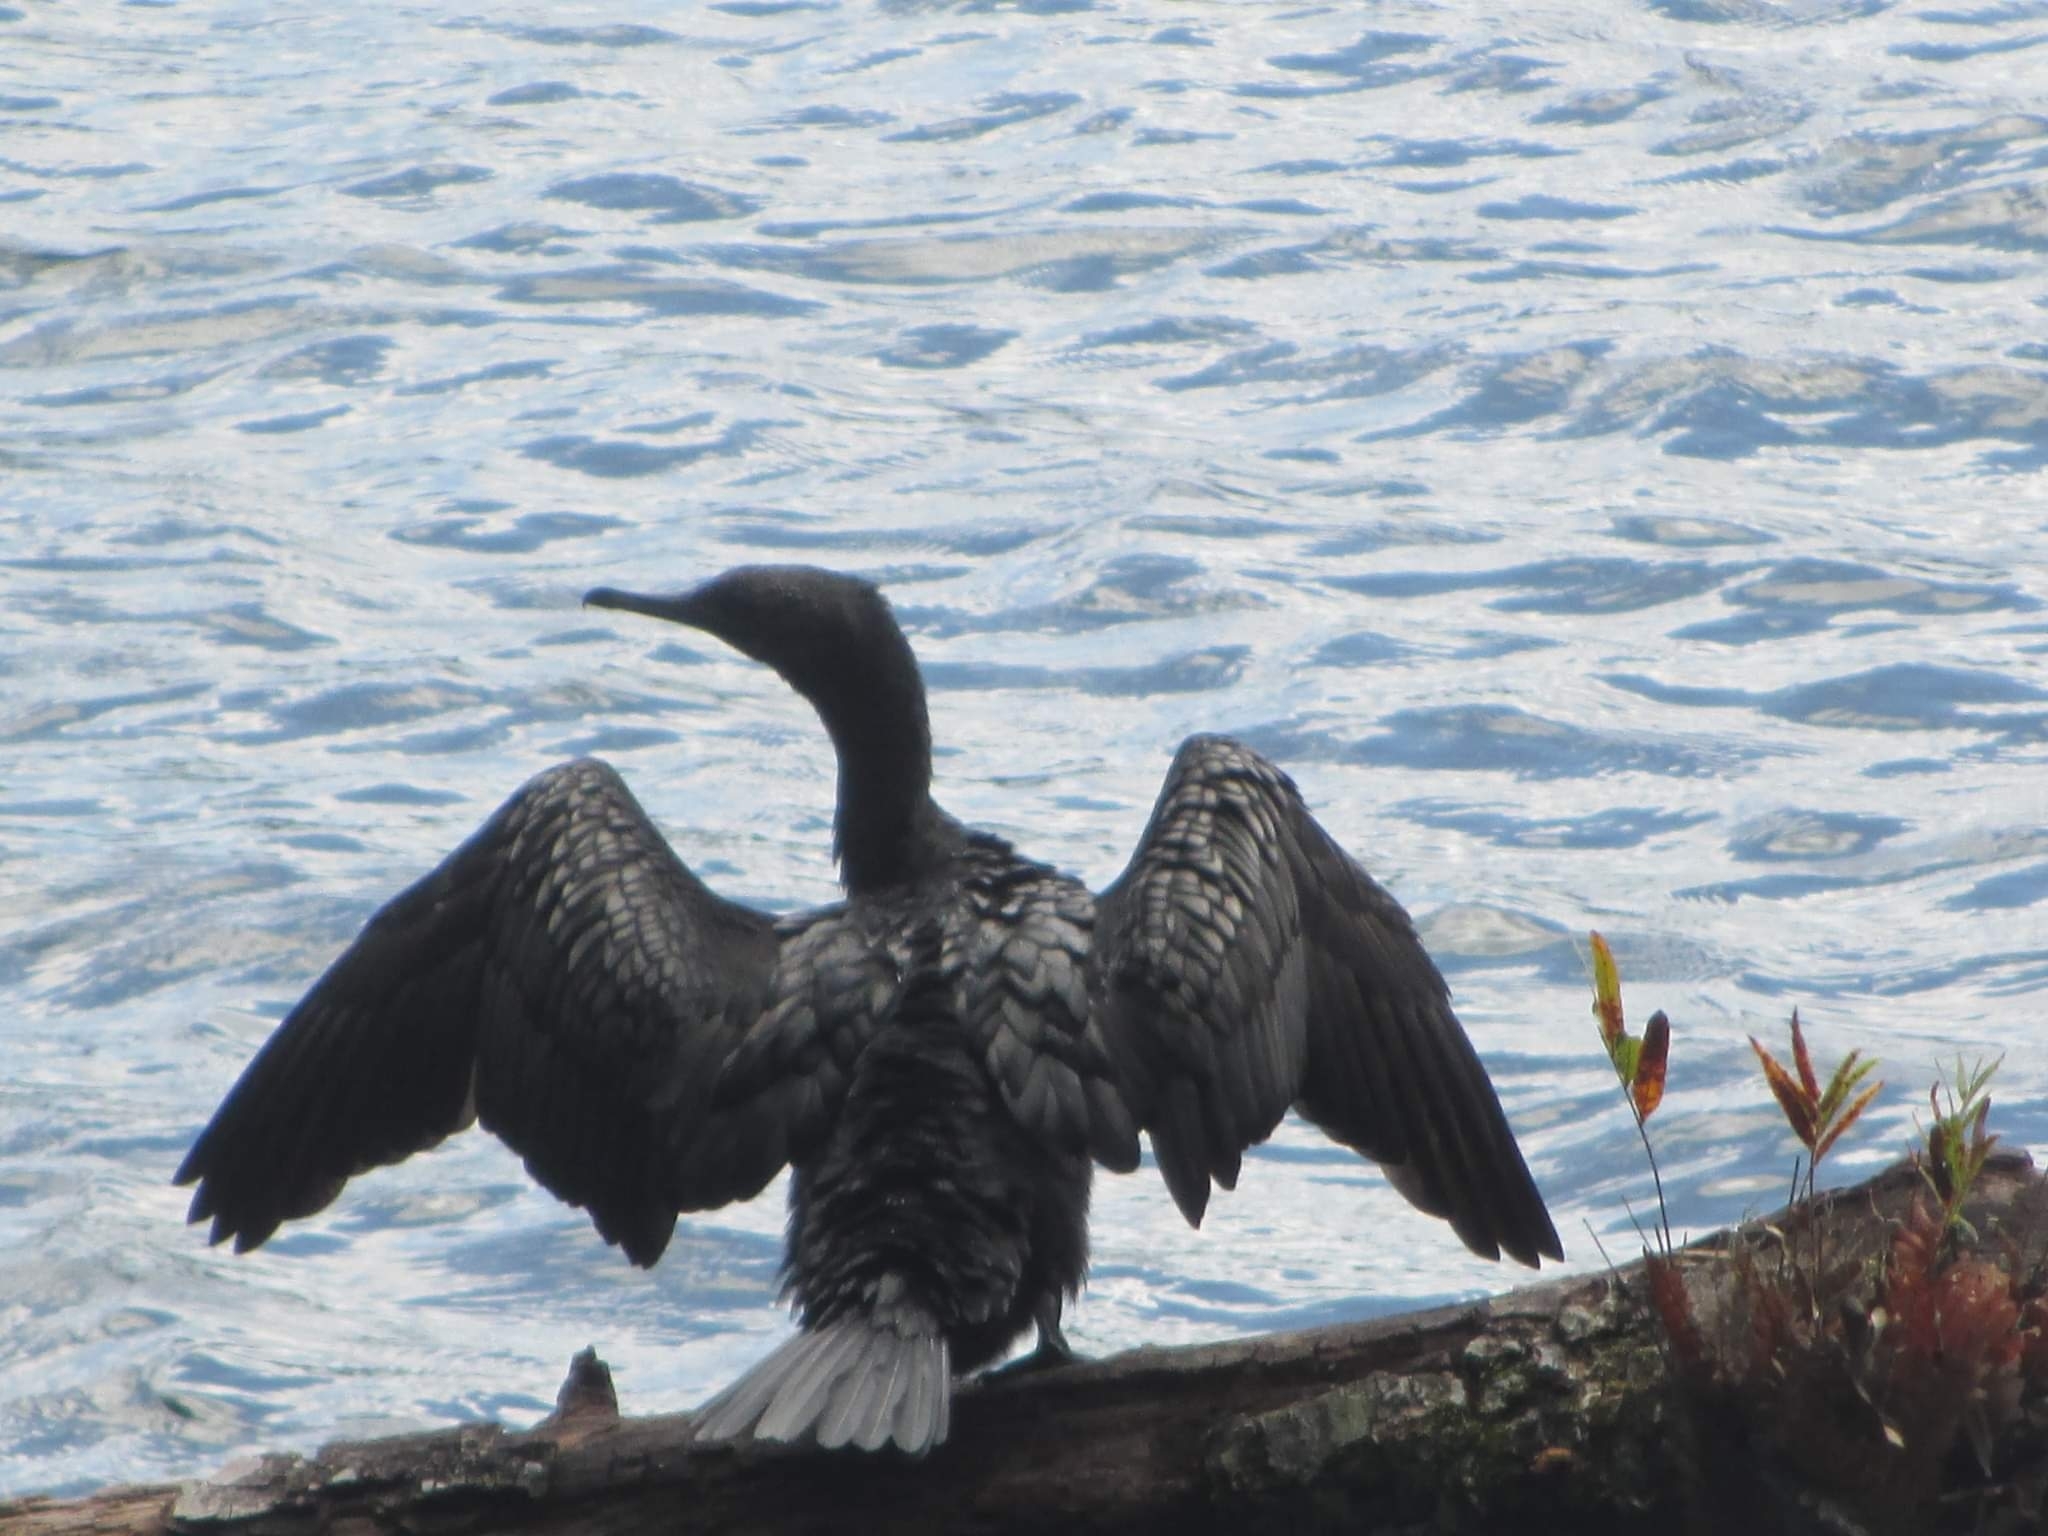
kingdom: Animalia
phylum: Chordata
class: Aves
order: Suliformes
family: Phalacrocoracidae
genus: Phalacrocorax
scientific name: Phalacrocorax sulcirostris
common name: Little black cormorant
